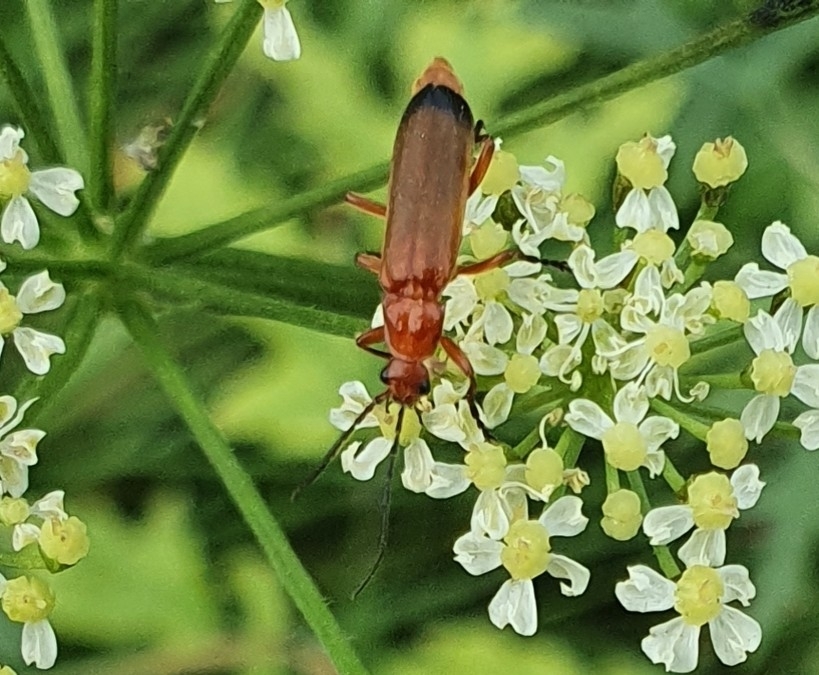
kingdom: Animalia
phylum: Arthropoda
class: Insecta
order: Coleoptera
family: Cantharidae
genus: Rhagonycha
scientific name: Rhagonycha fulva
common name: Common red soldier beetle
